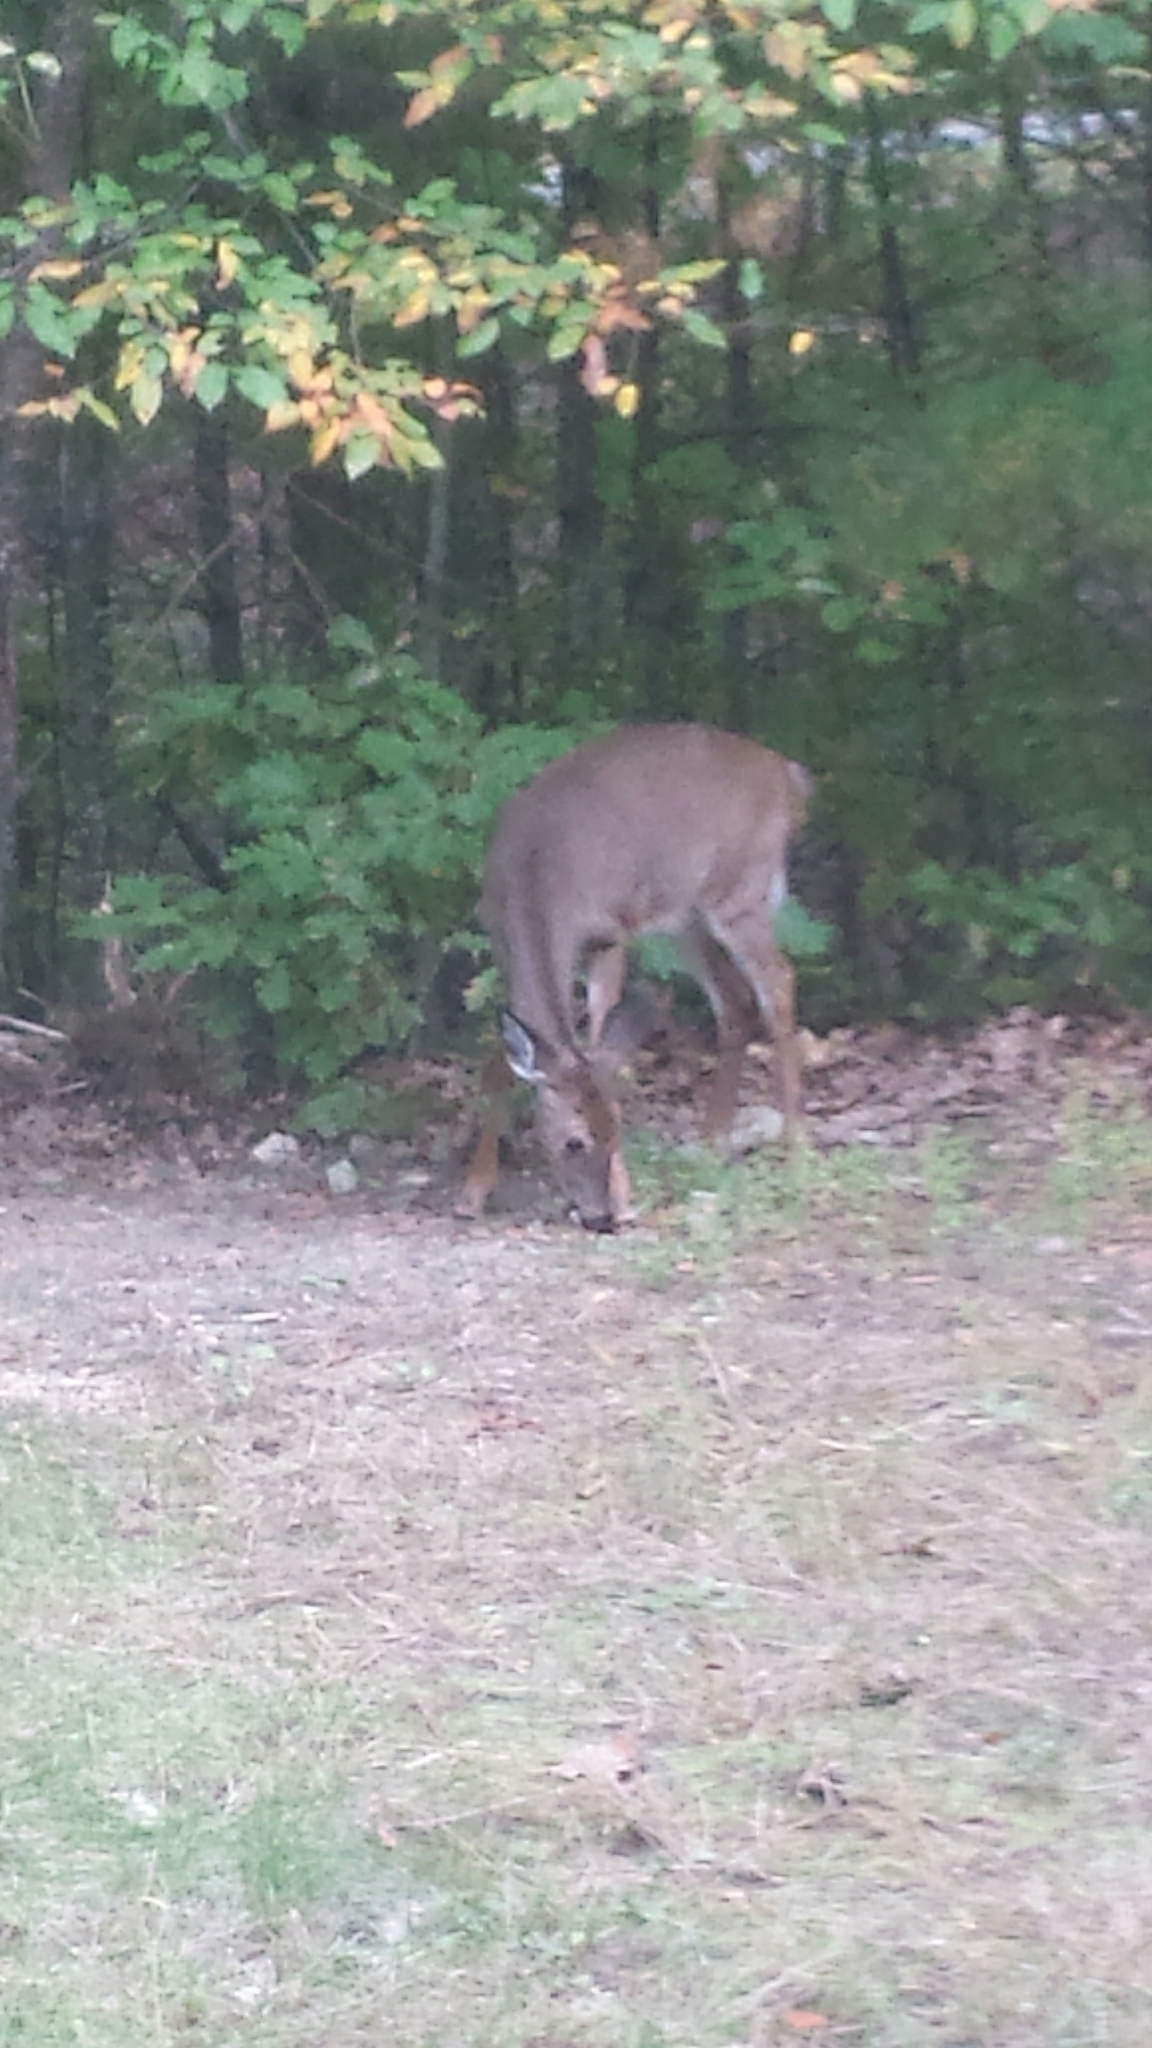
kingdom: Animalia
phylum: Chordata
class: Mammalia
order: Artiodactyla
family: Cervidae
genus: Odocoileus
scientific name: Odocoileus virginianus
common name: White-tailed deer
